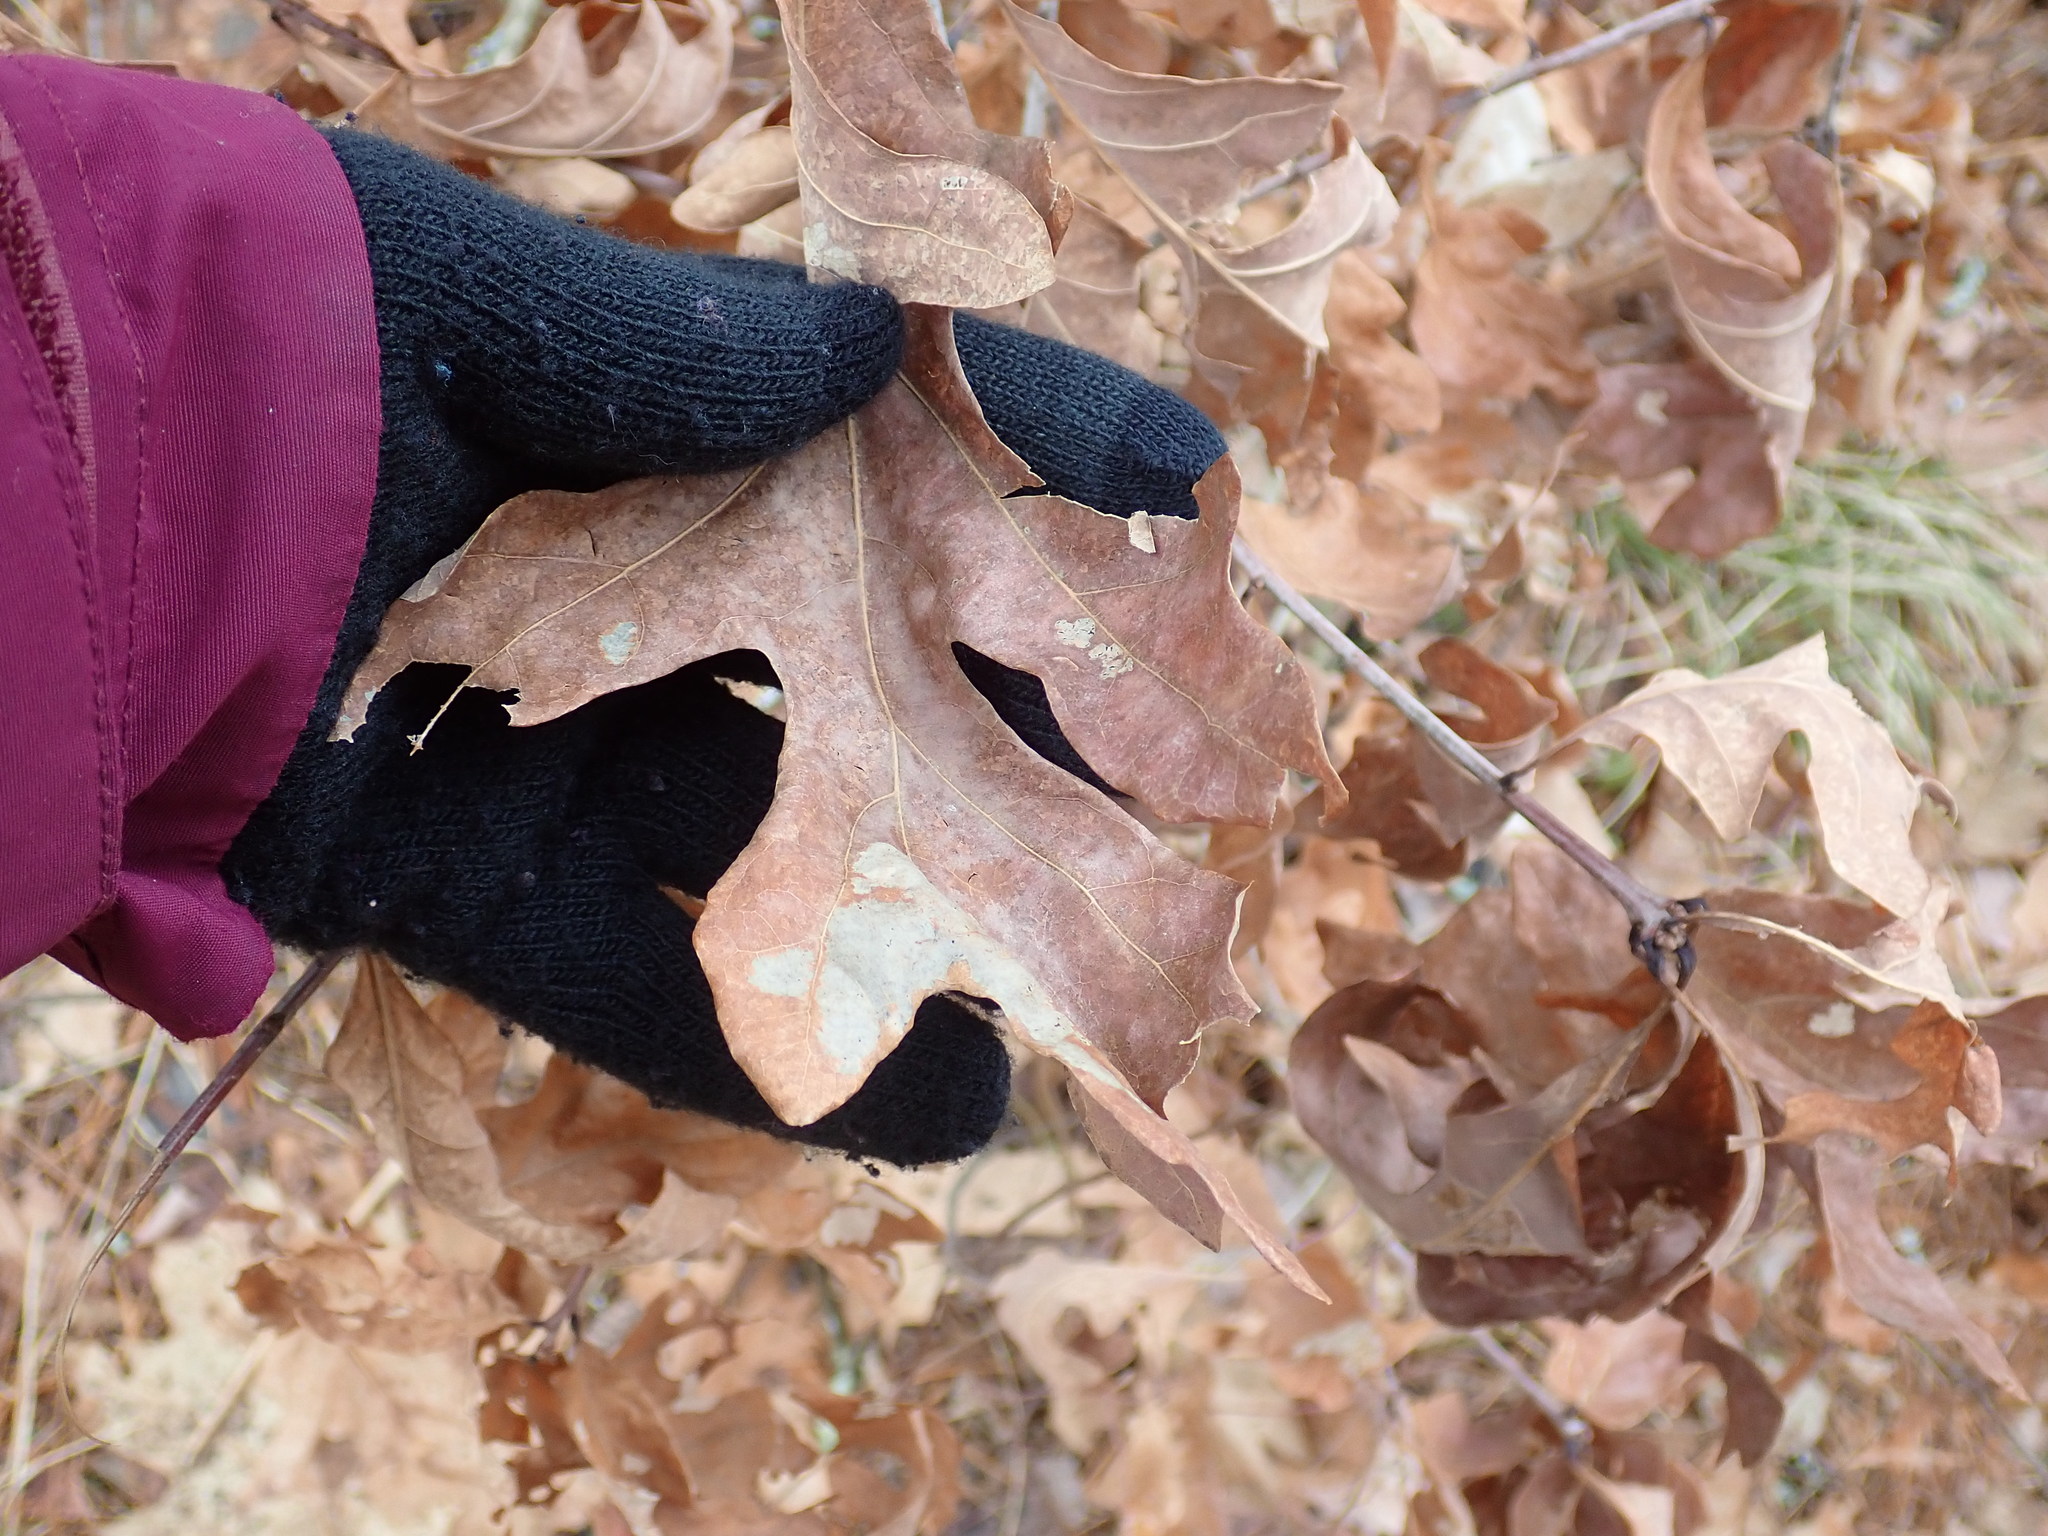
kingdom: Plantae
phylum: Tracheophyta
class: Magnoliopsida
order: Fagales
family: Fagaceae
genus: Quercus
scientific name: Quercus alba
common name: White oak
